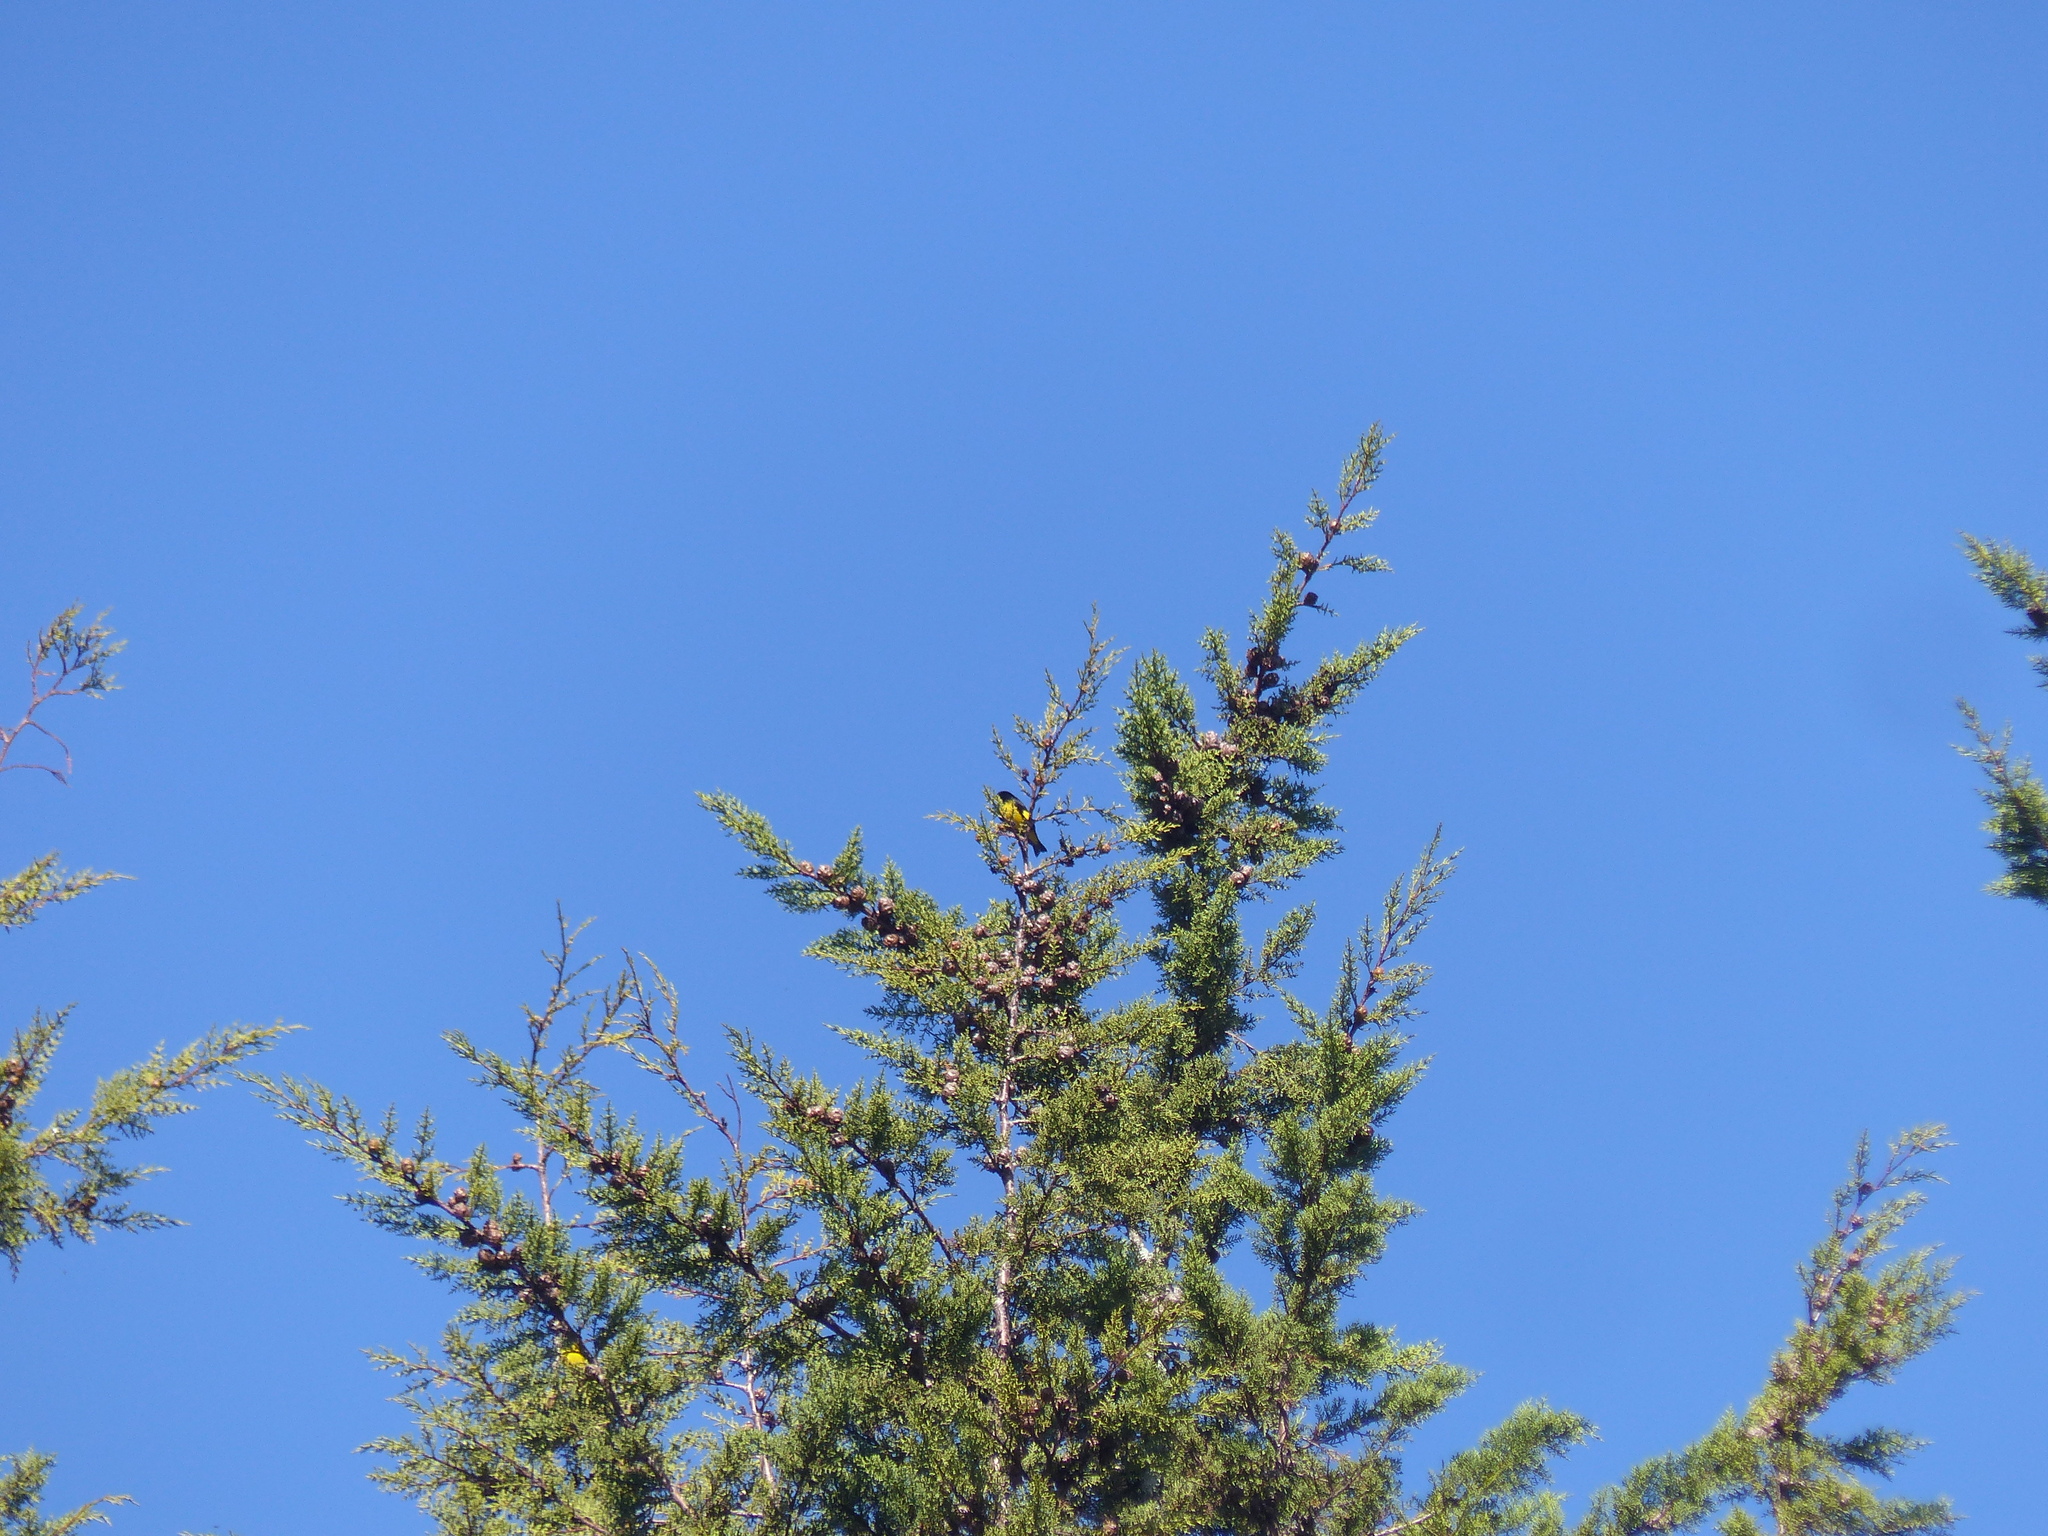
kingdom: Animalia
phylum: Chordata
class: Aves
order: Passeriformes
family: Fringillidae
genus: Spinus
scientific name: Spinus xanthogastrus
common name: Yellow-bellied siskin
